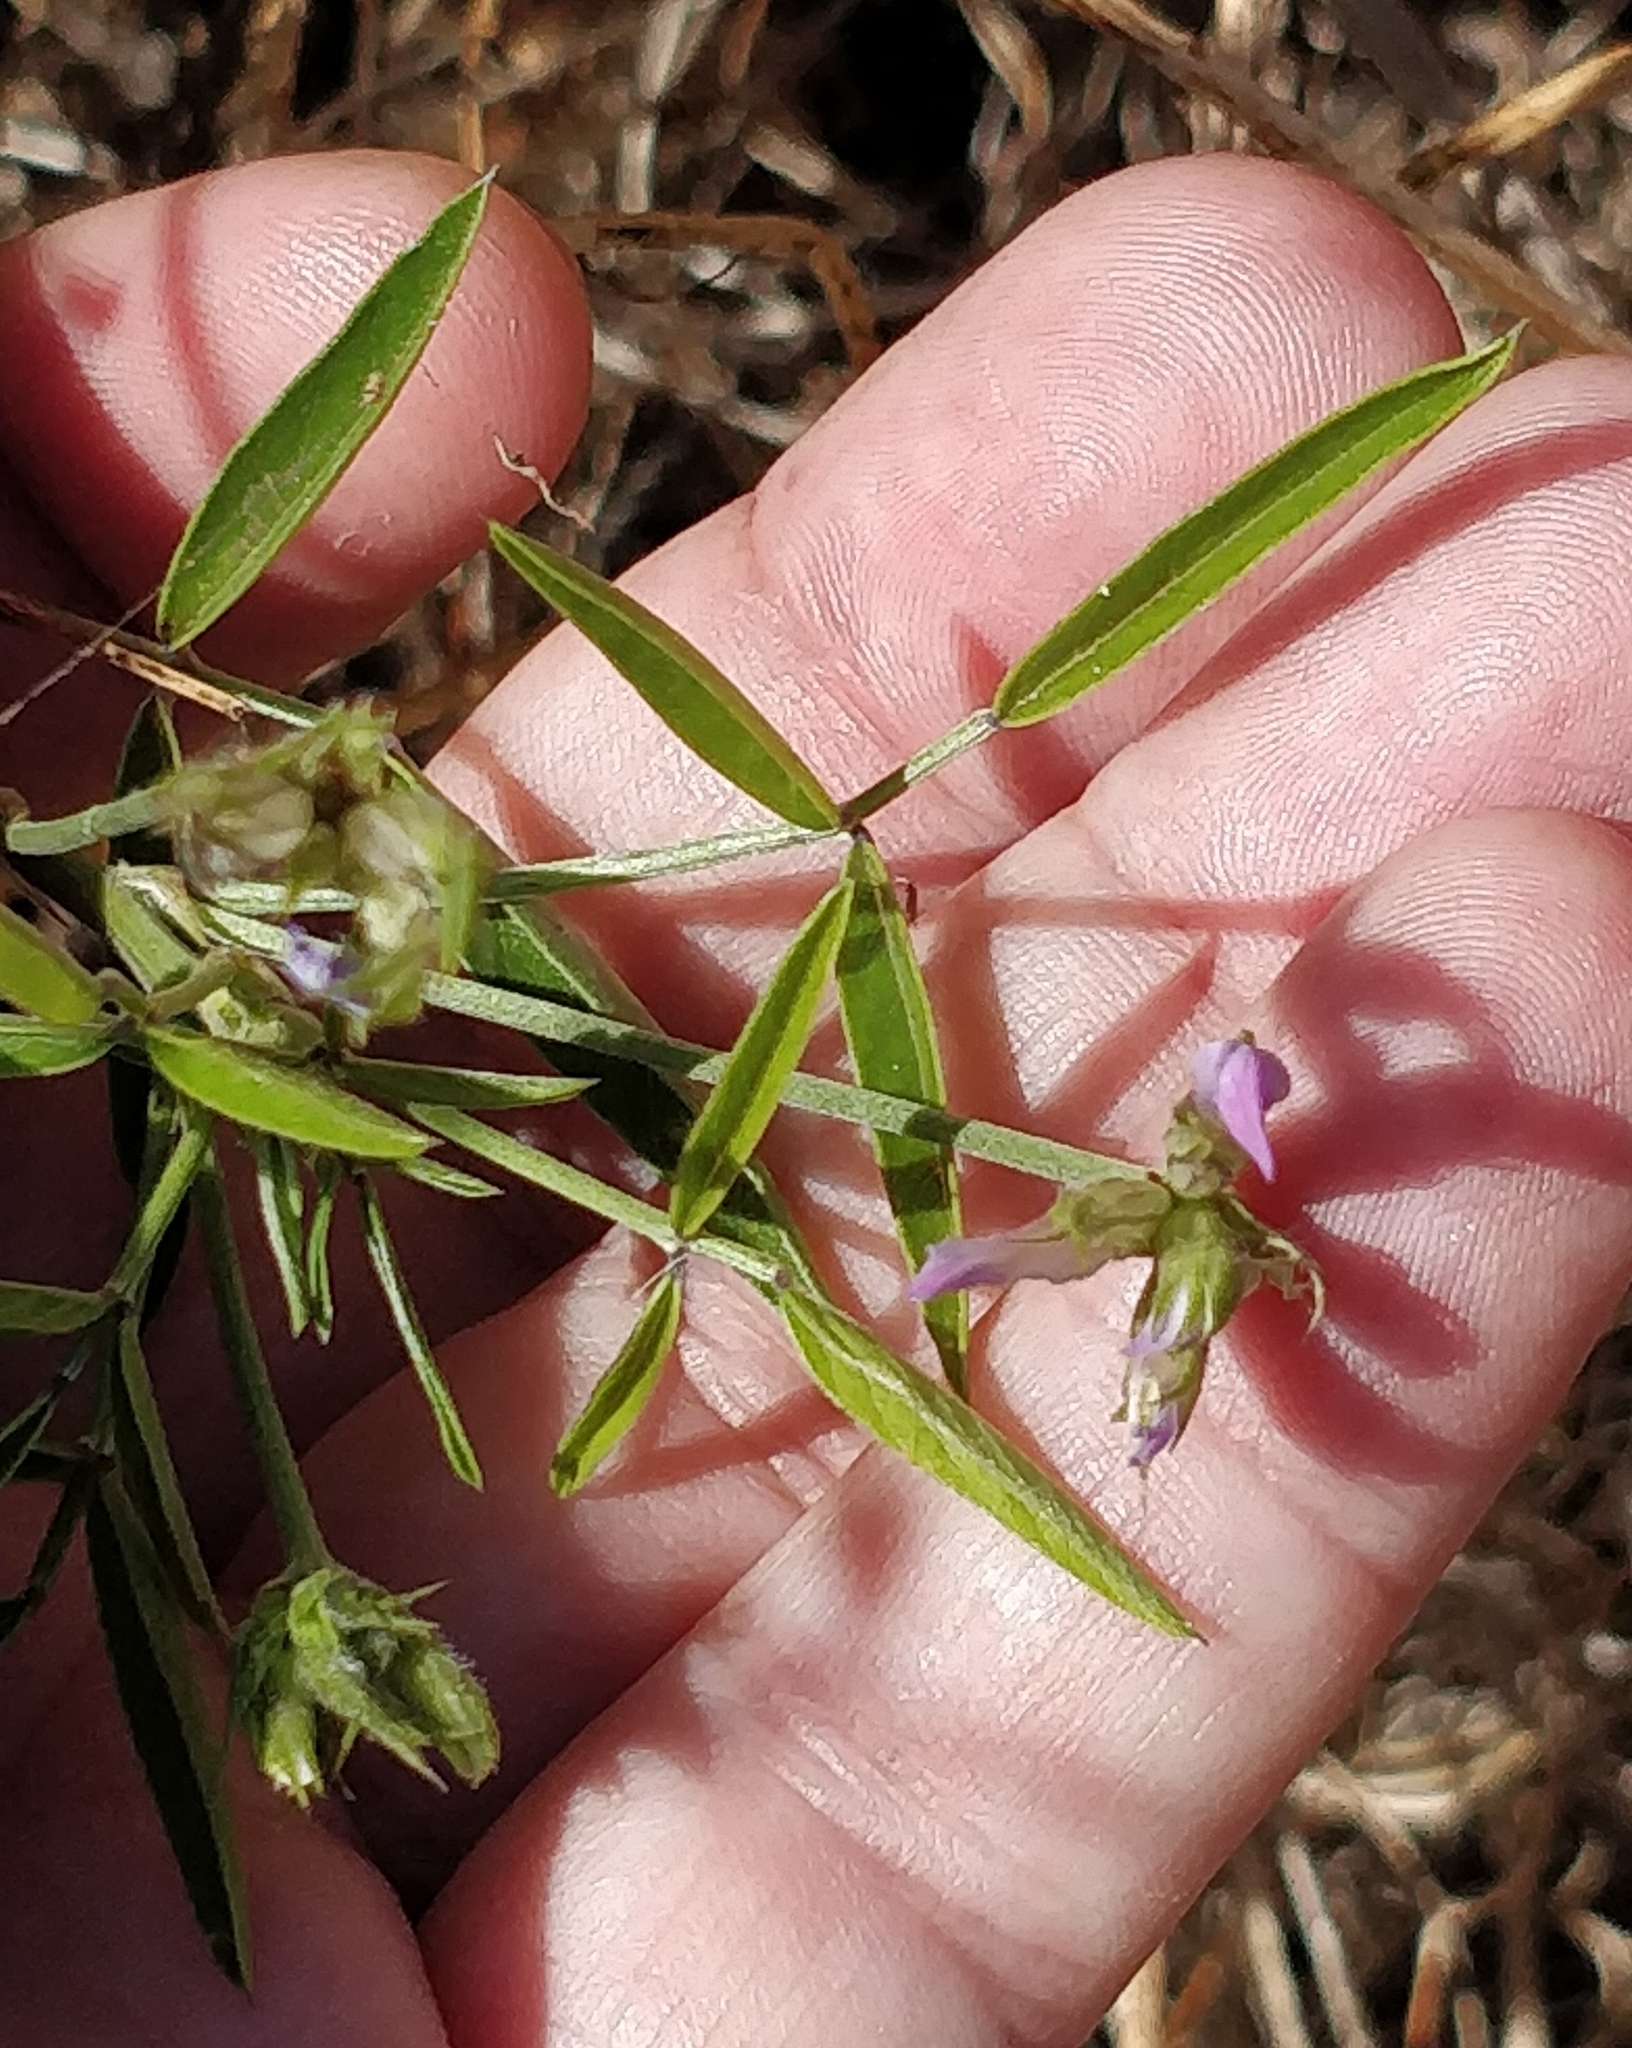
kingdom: Plantae
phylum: Tracheophyta
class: Magnoliopsida
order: Fabales
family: Fabaceae
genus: Bituminaria
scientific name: Bituminaria bituminosa
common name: Arabian pea
